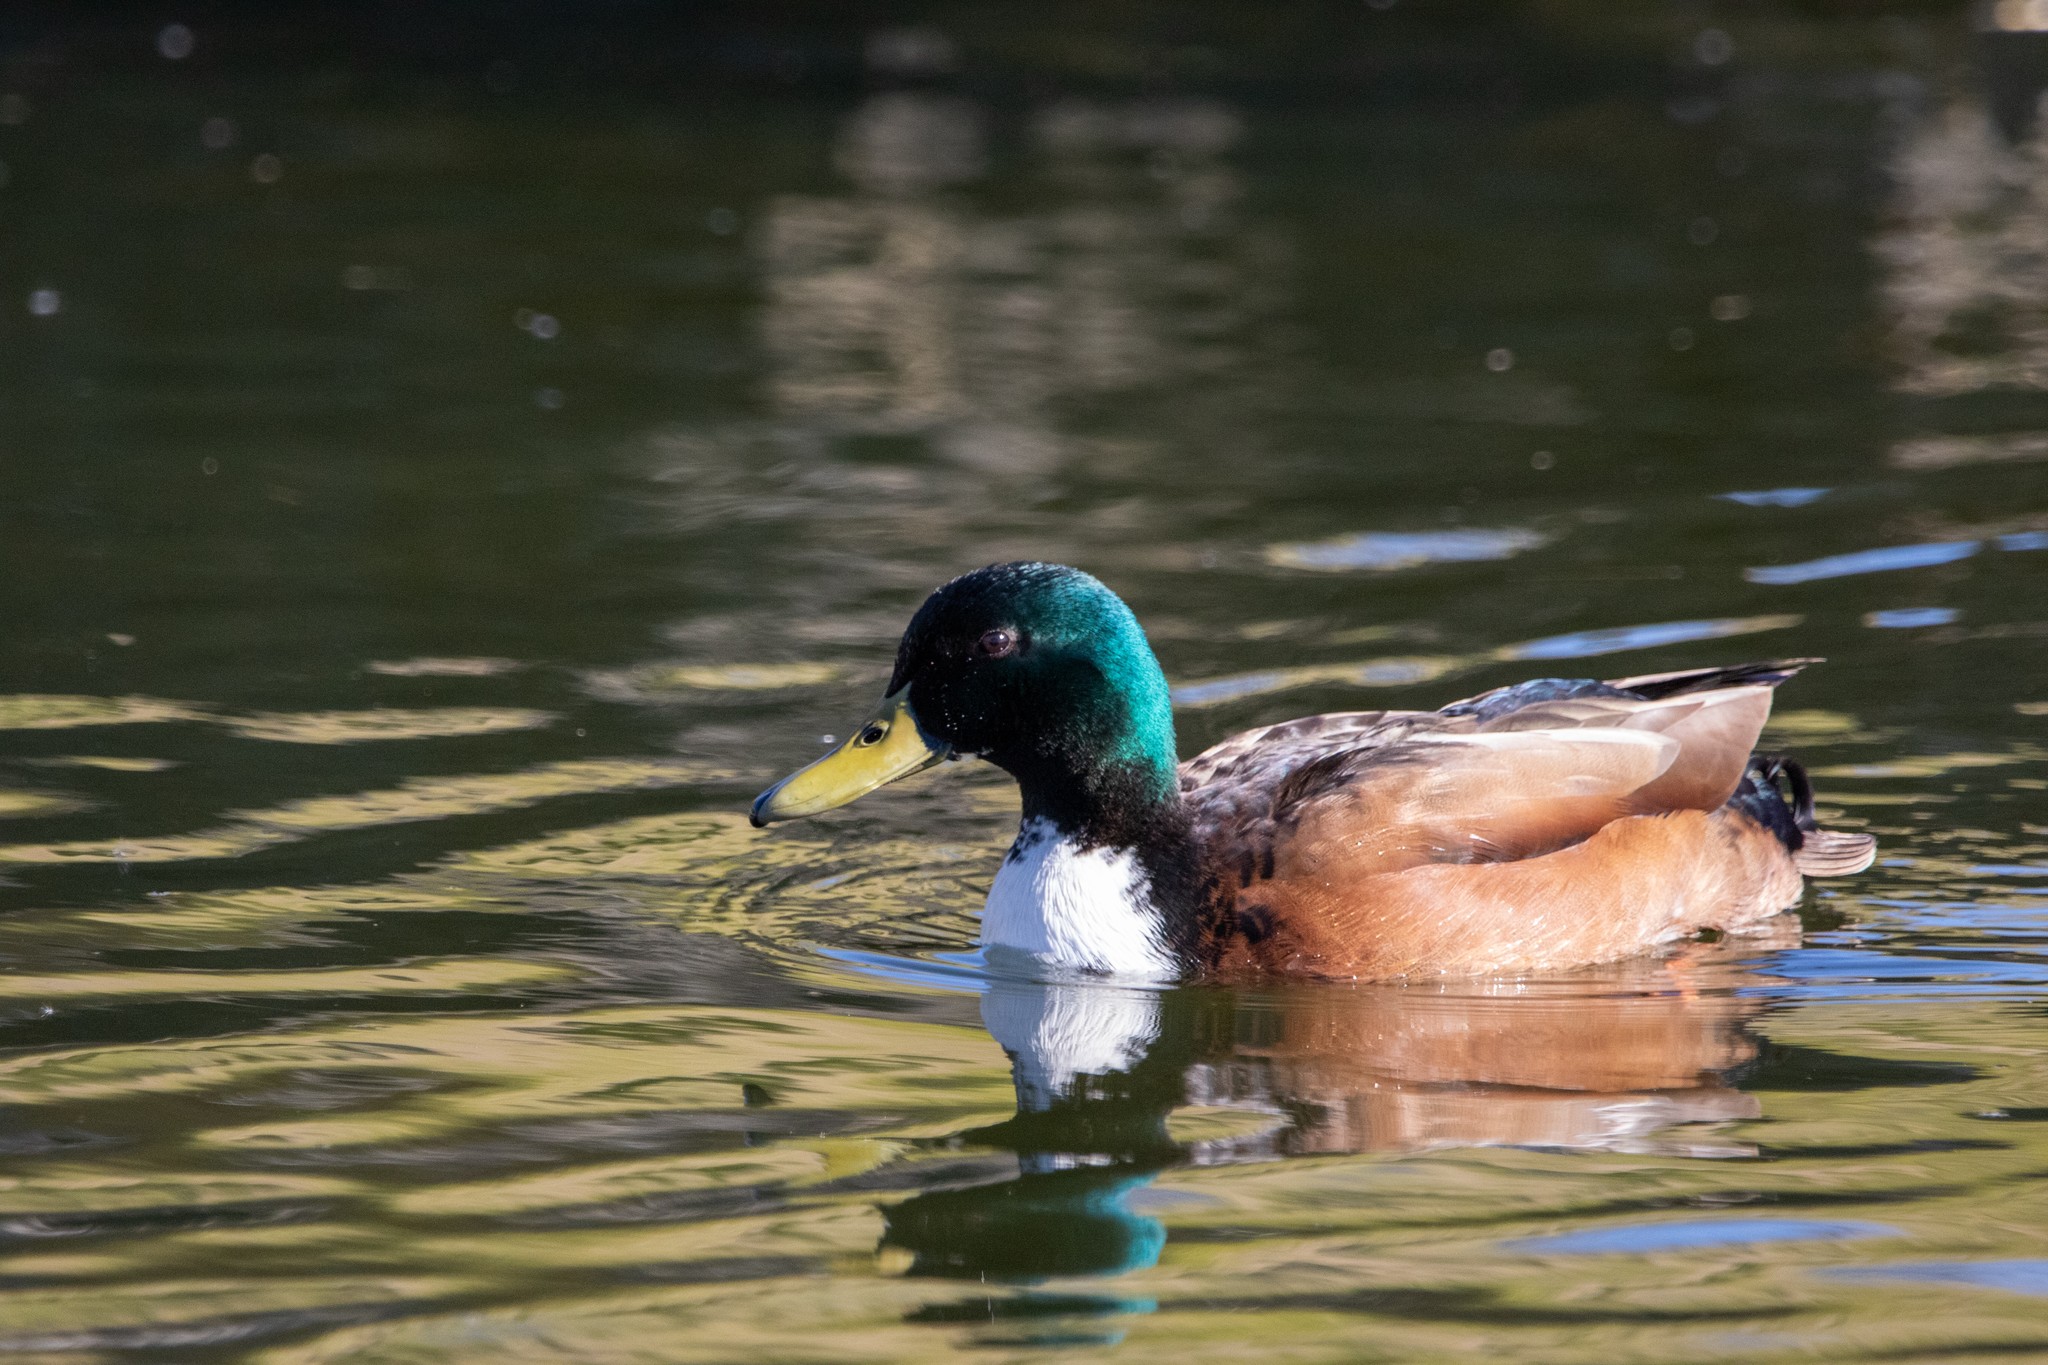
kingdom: Animalia
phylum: Chordata
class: Aves
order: Anseriformes
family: Anatidae
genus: Anas
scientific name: Anas platyrhynchos
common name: Mallard
